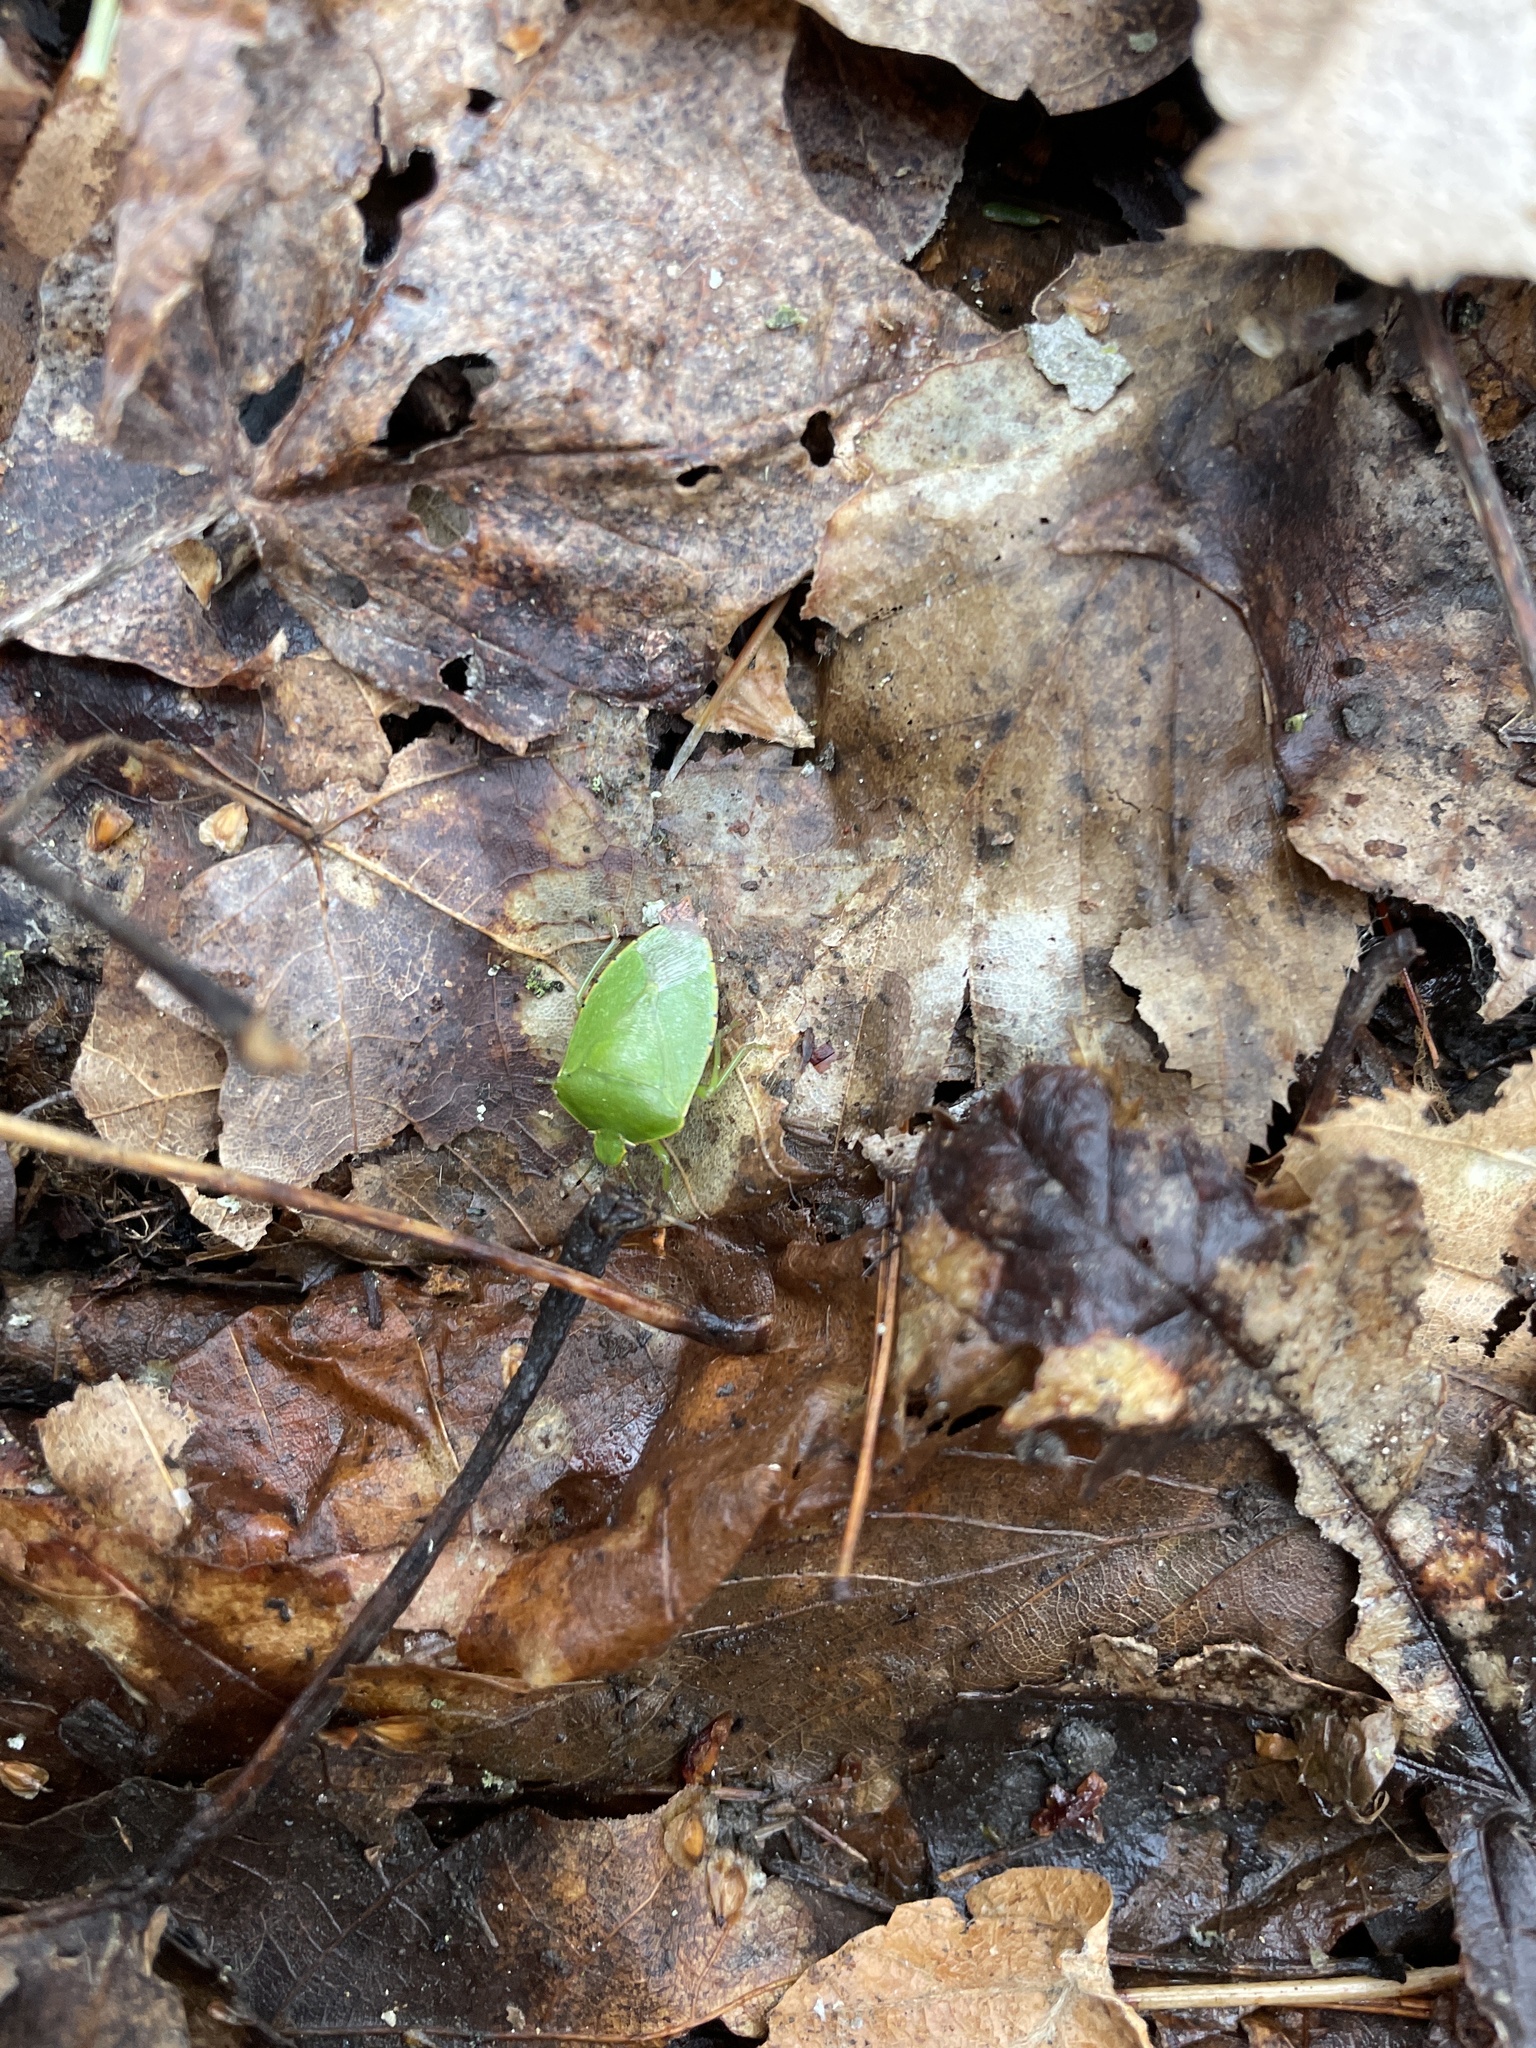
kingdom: Animalia
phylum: Arthropoda
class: Insecta
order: Hemiptera
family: Pentatomidae
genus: Chinavia
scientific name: Chinavia hilaris
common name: Green stink bug
